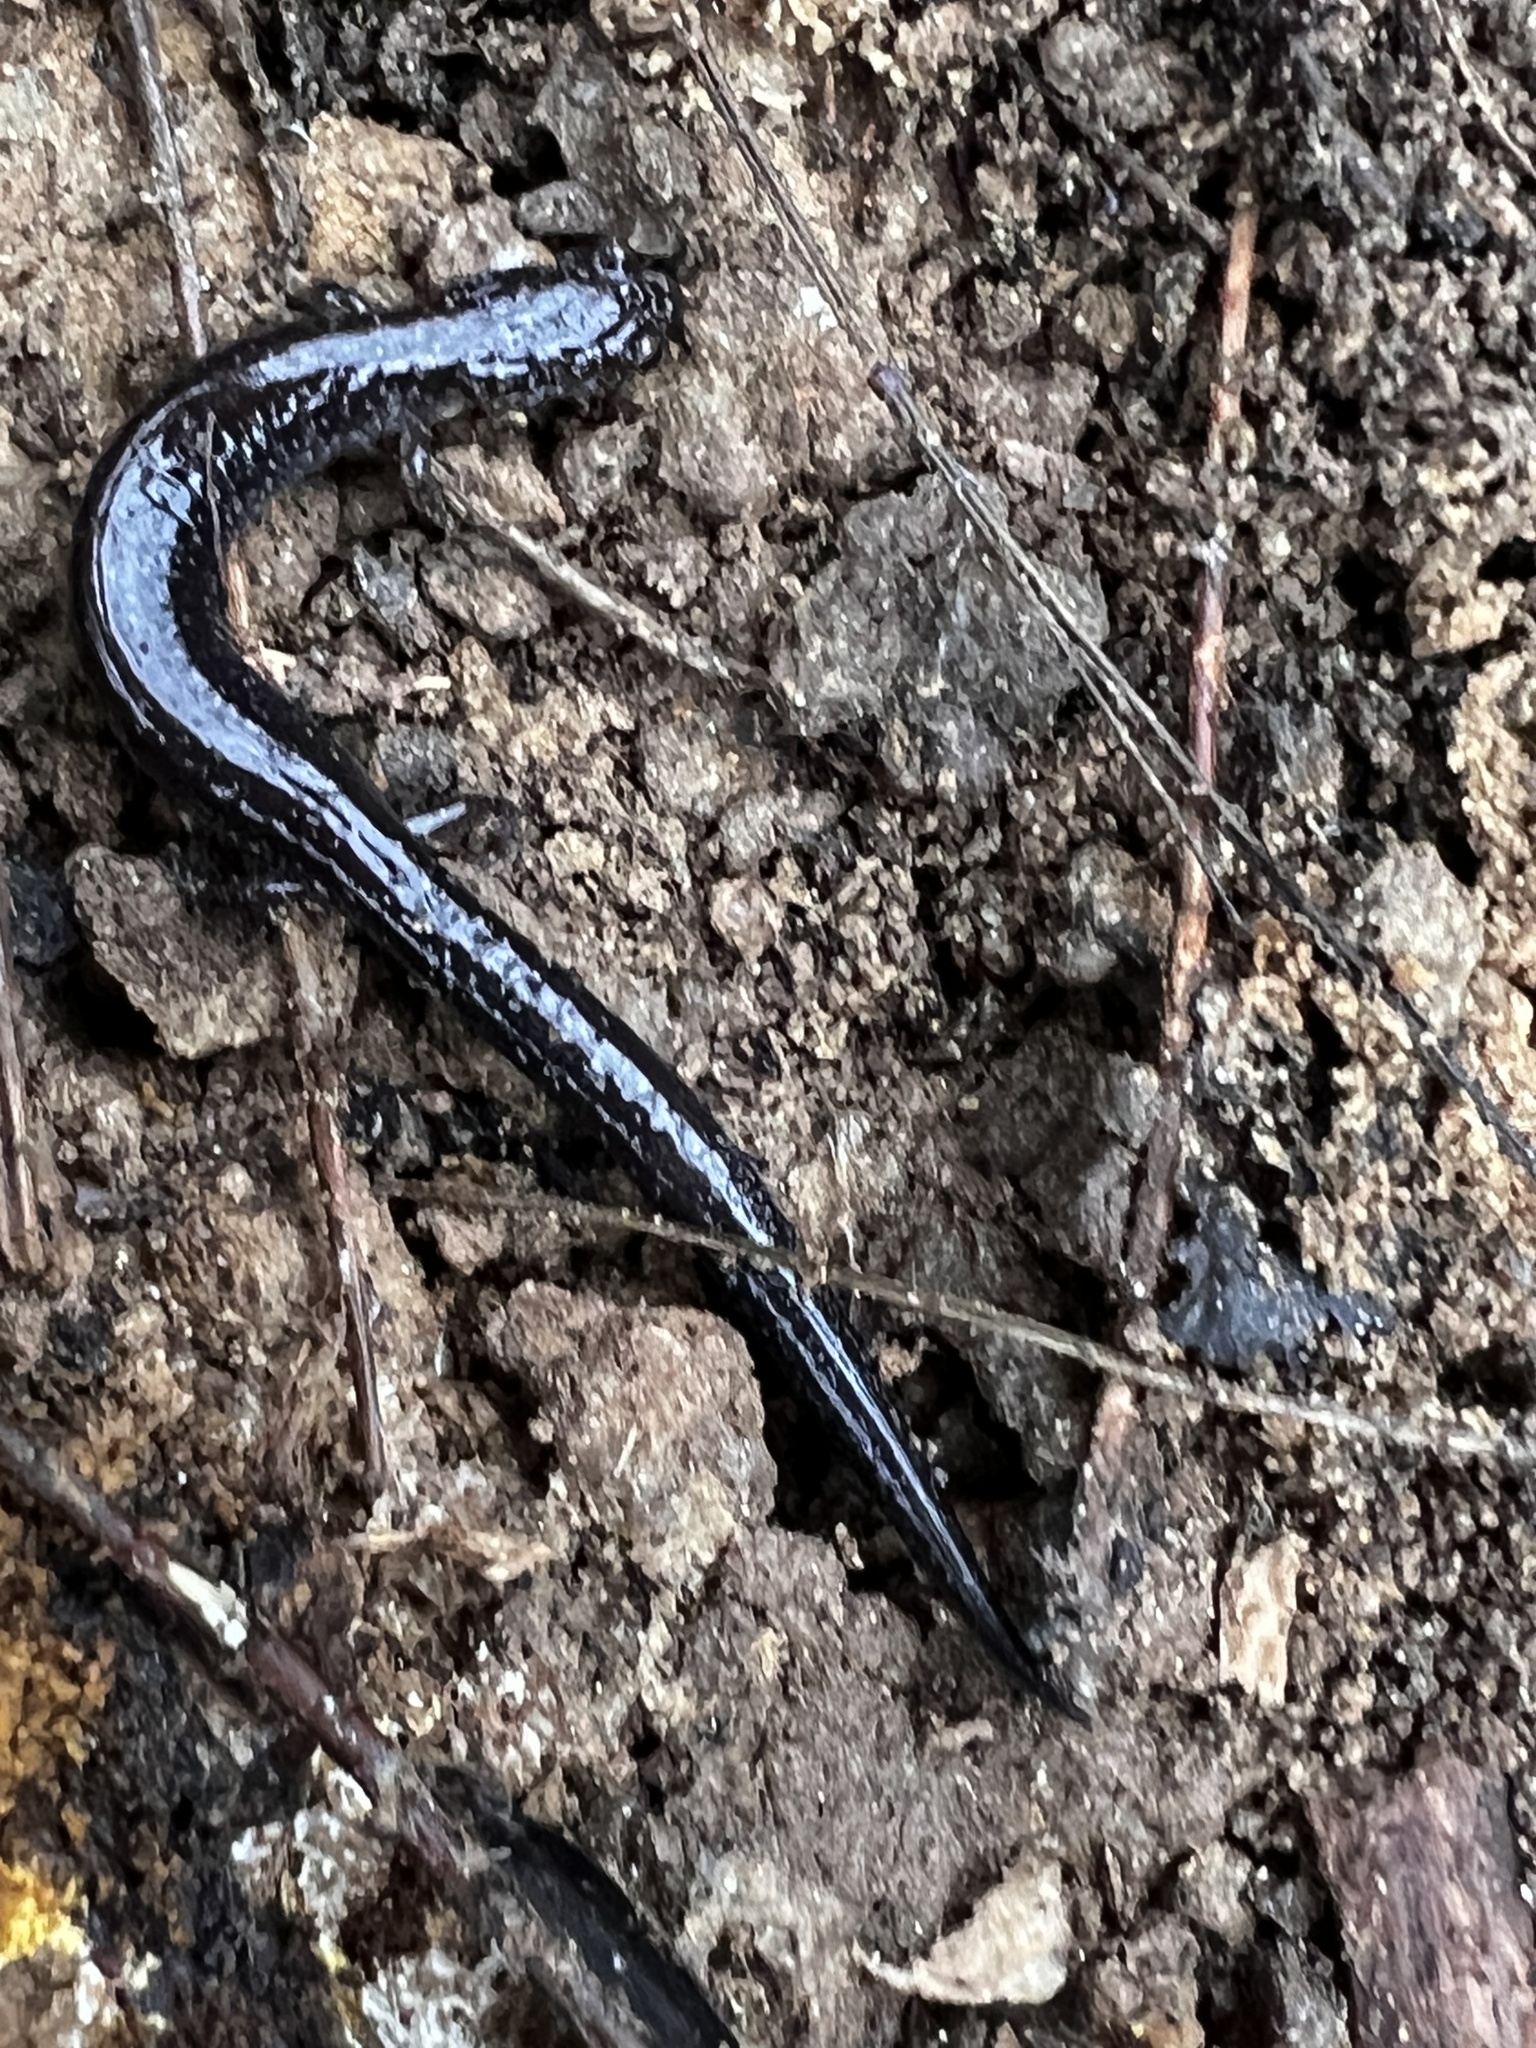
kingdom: Animalia
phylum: Chordata
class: Amphibia
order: Caudata
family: Plethodontidae
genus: Plethodon
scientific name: Plethodon cinereus
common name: Redback salamander
